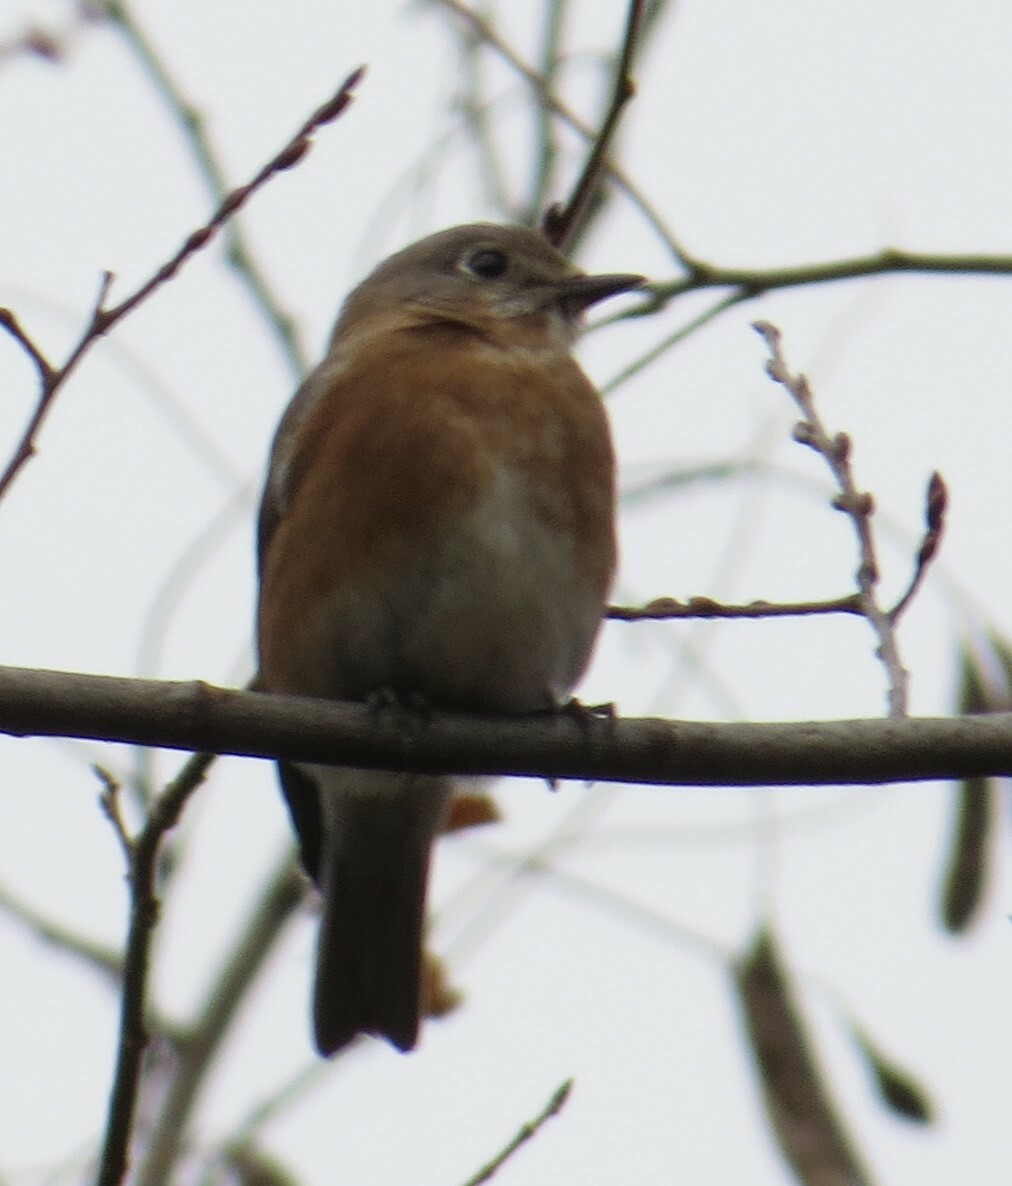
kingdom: Animalia
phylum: Chordata
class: Aves
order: Passeriformes
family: Turdidae
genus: Sialia
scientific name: Sialia sialis
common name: Eastern bluebird
